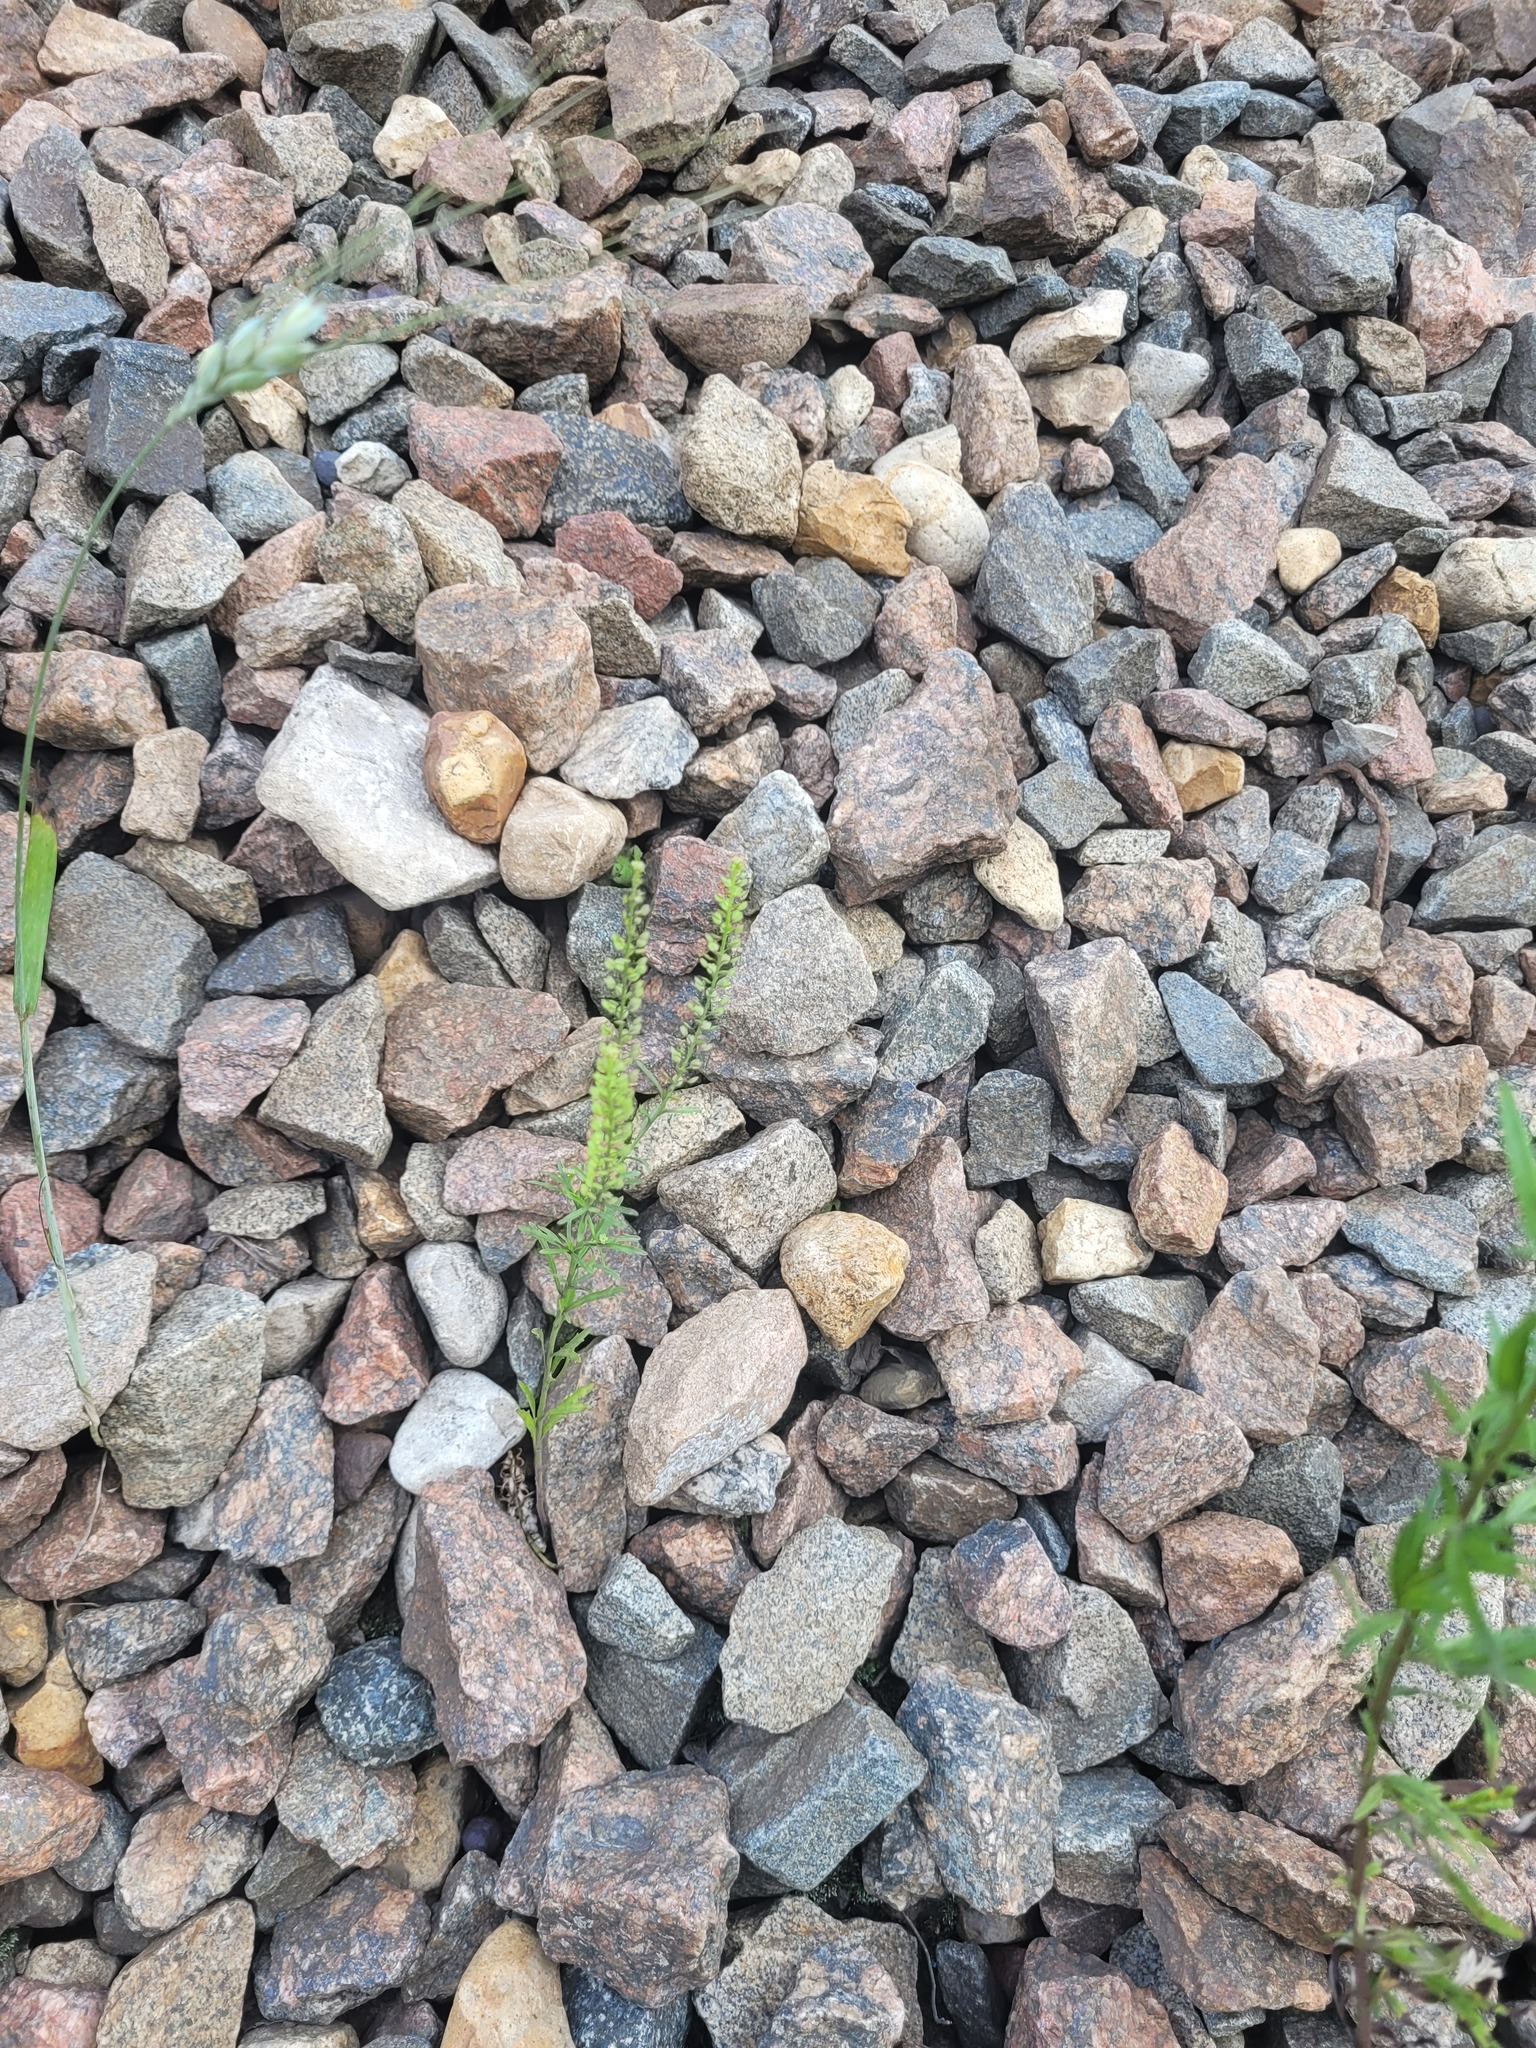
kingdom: Plantae
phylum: Tracheophyta
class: Magnoliopsida
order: Brassicales
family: Brassicaceae
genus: Lepidium
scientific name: Lepidium densiflorum
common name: Miner's pepperwort
